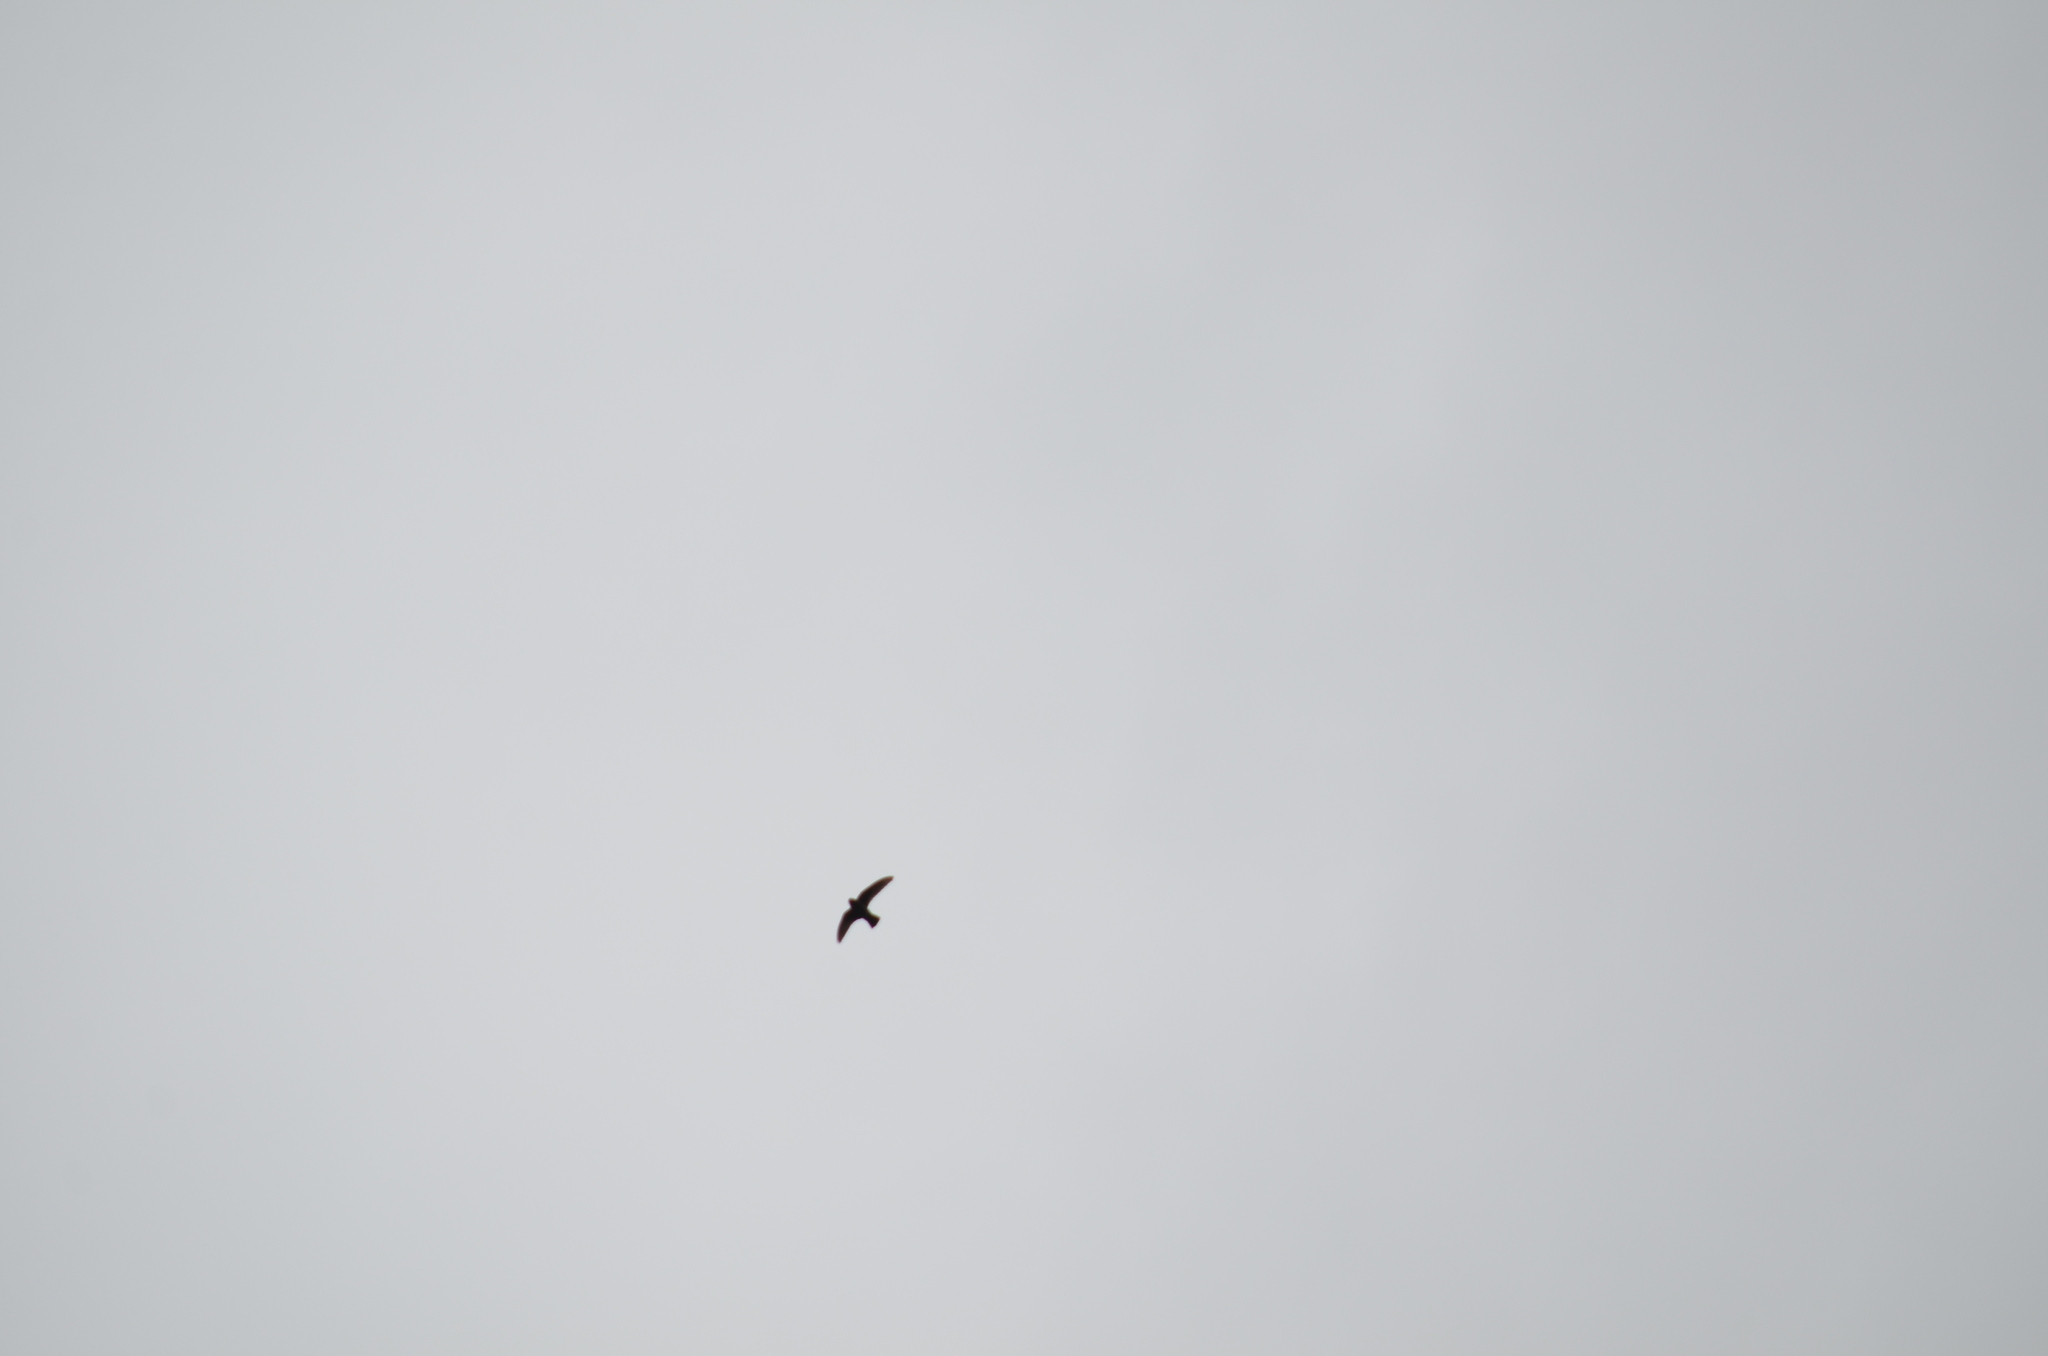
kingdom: Animalia
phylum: Chordata
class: Aves
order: Apodiformes
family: Apodidae
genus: Cypseloides
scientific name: Cypseloides niger
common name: Black swift
